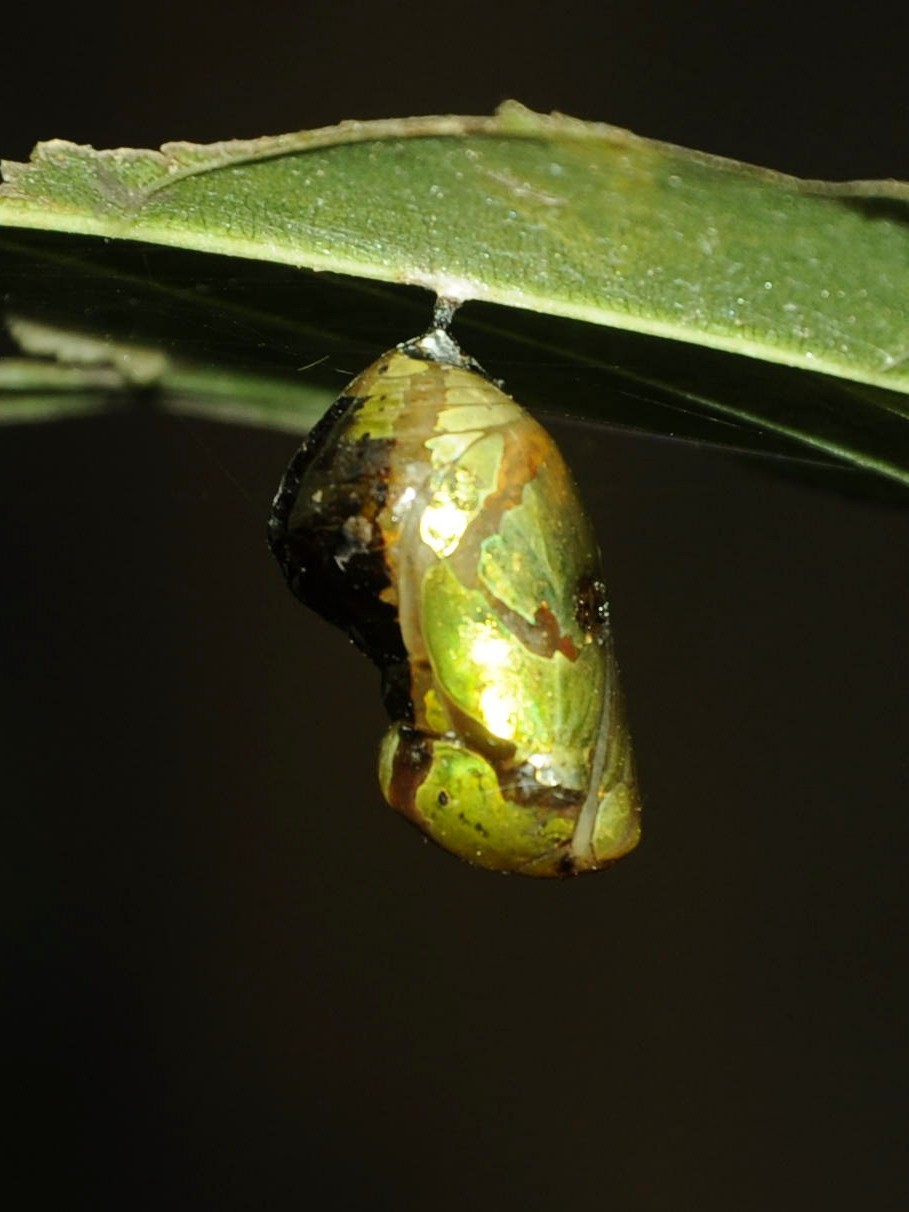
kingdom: Animalia
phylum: Arthropoda
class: Insecta
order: Lepidoptera
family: Nymphalidae
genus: Euploea
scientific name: Euploea core
